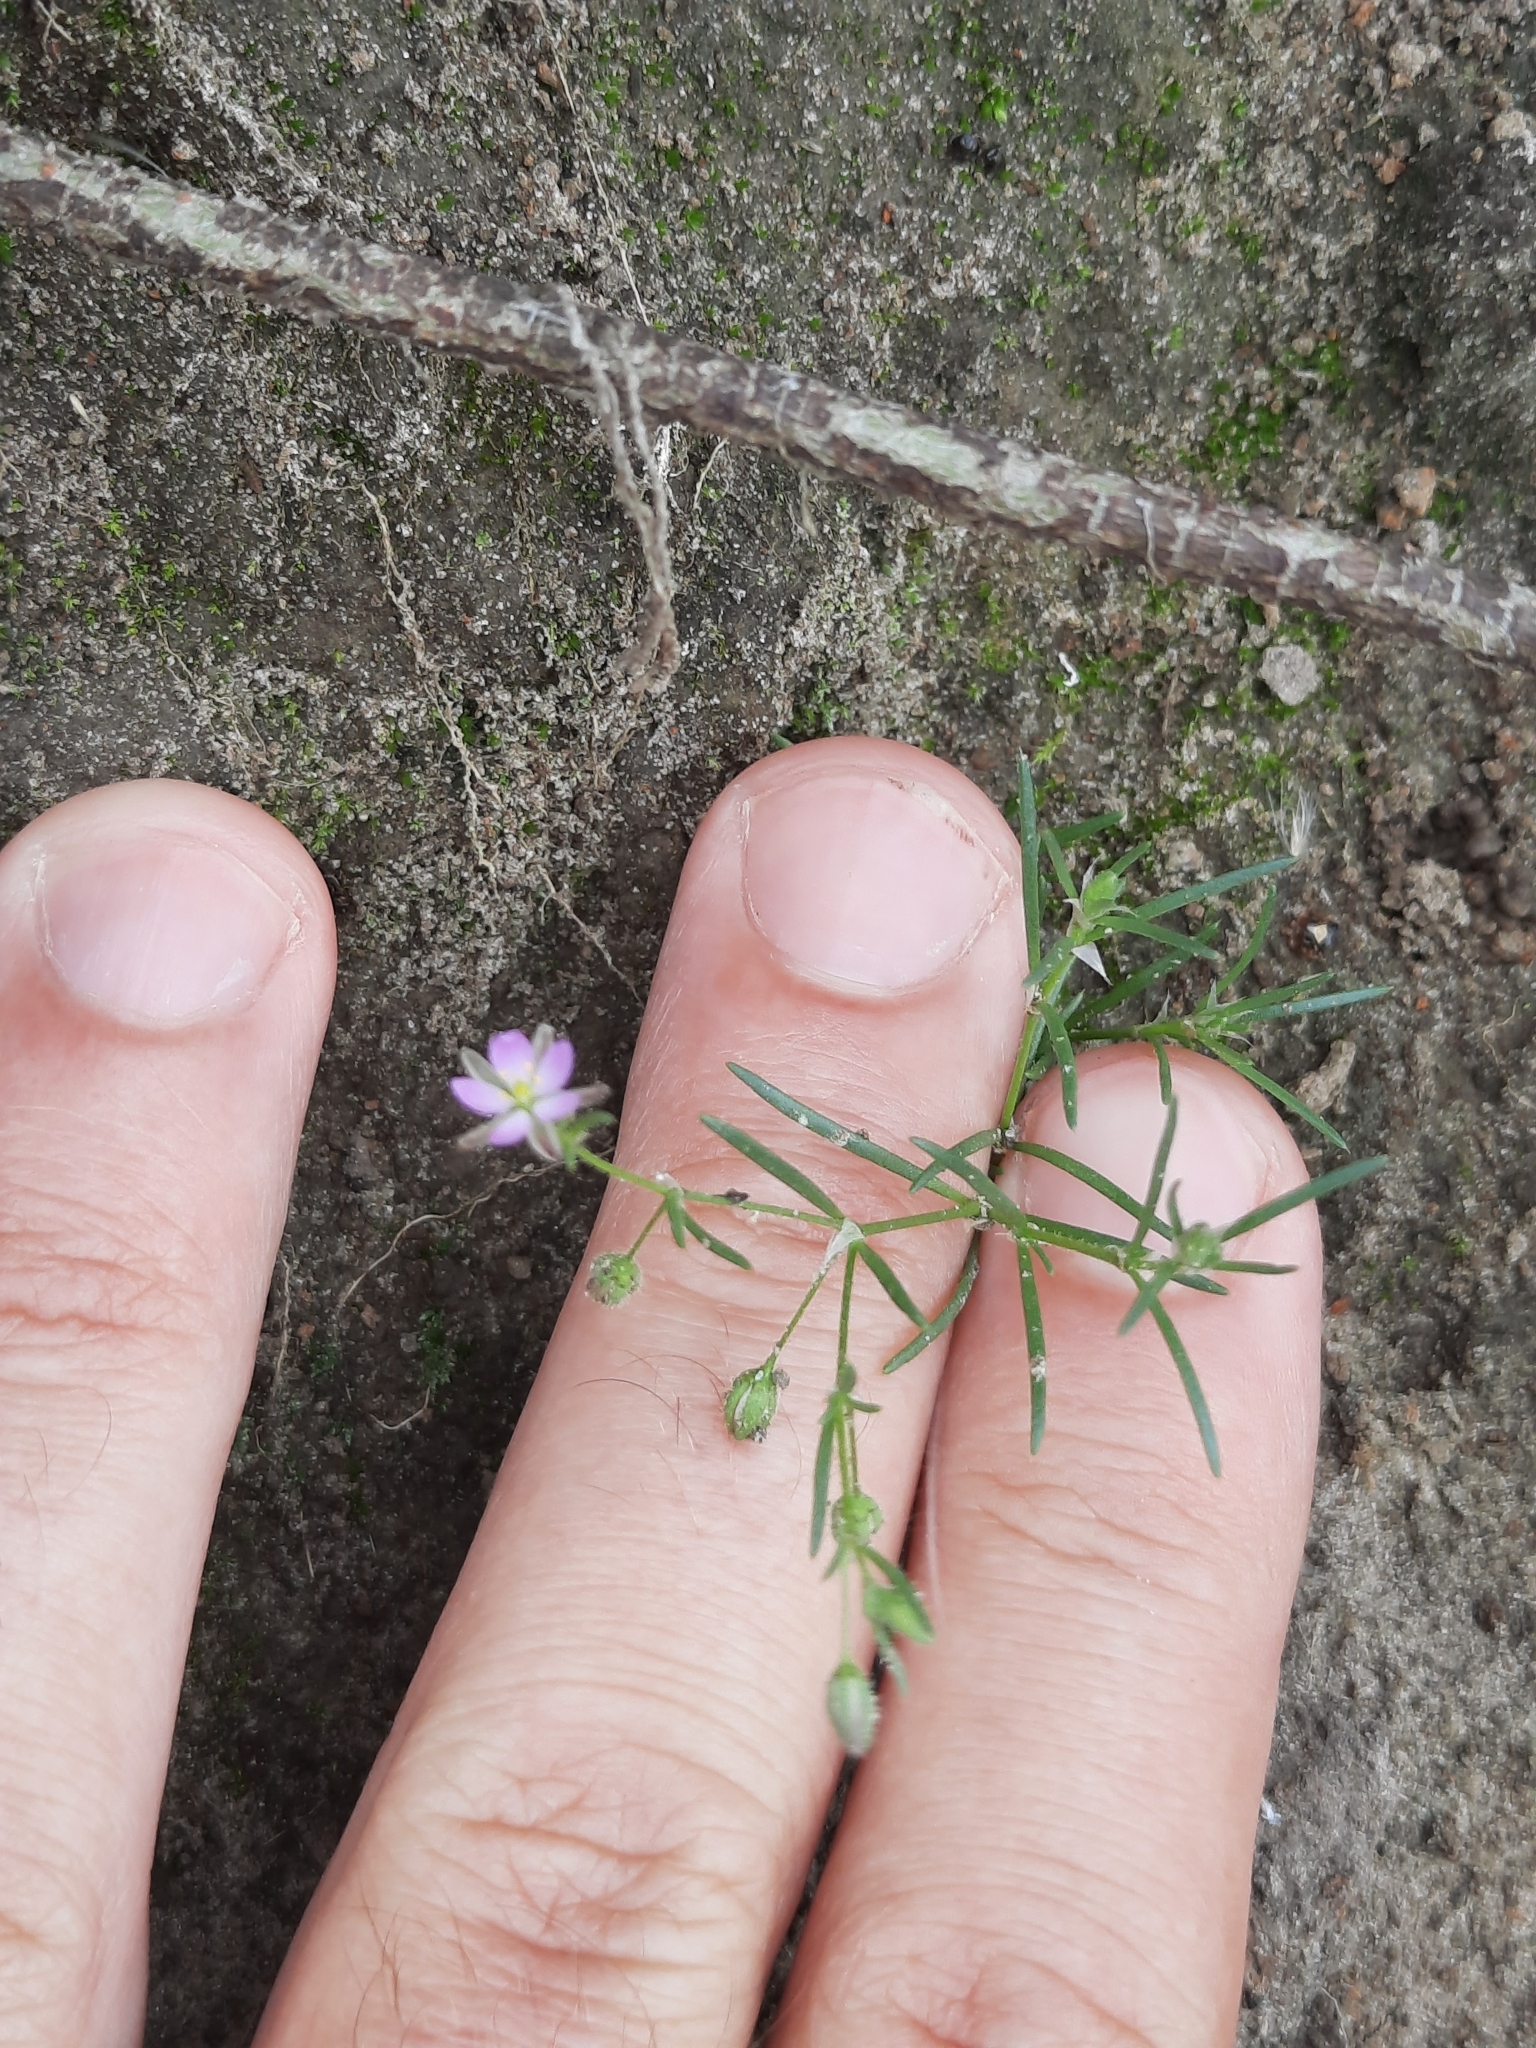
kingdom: Plantae
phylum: Tracheophyta
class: Magnoliopsida
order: Caryophyllales
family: Caryophyllaceae
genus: Spergularia
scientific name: Spergularia rubra
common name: Red sand-spurrey
